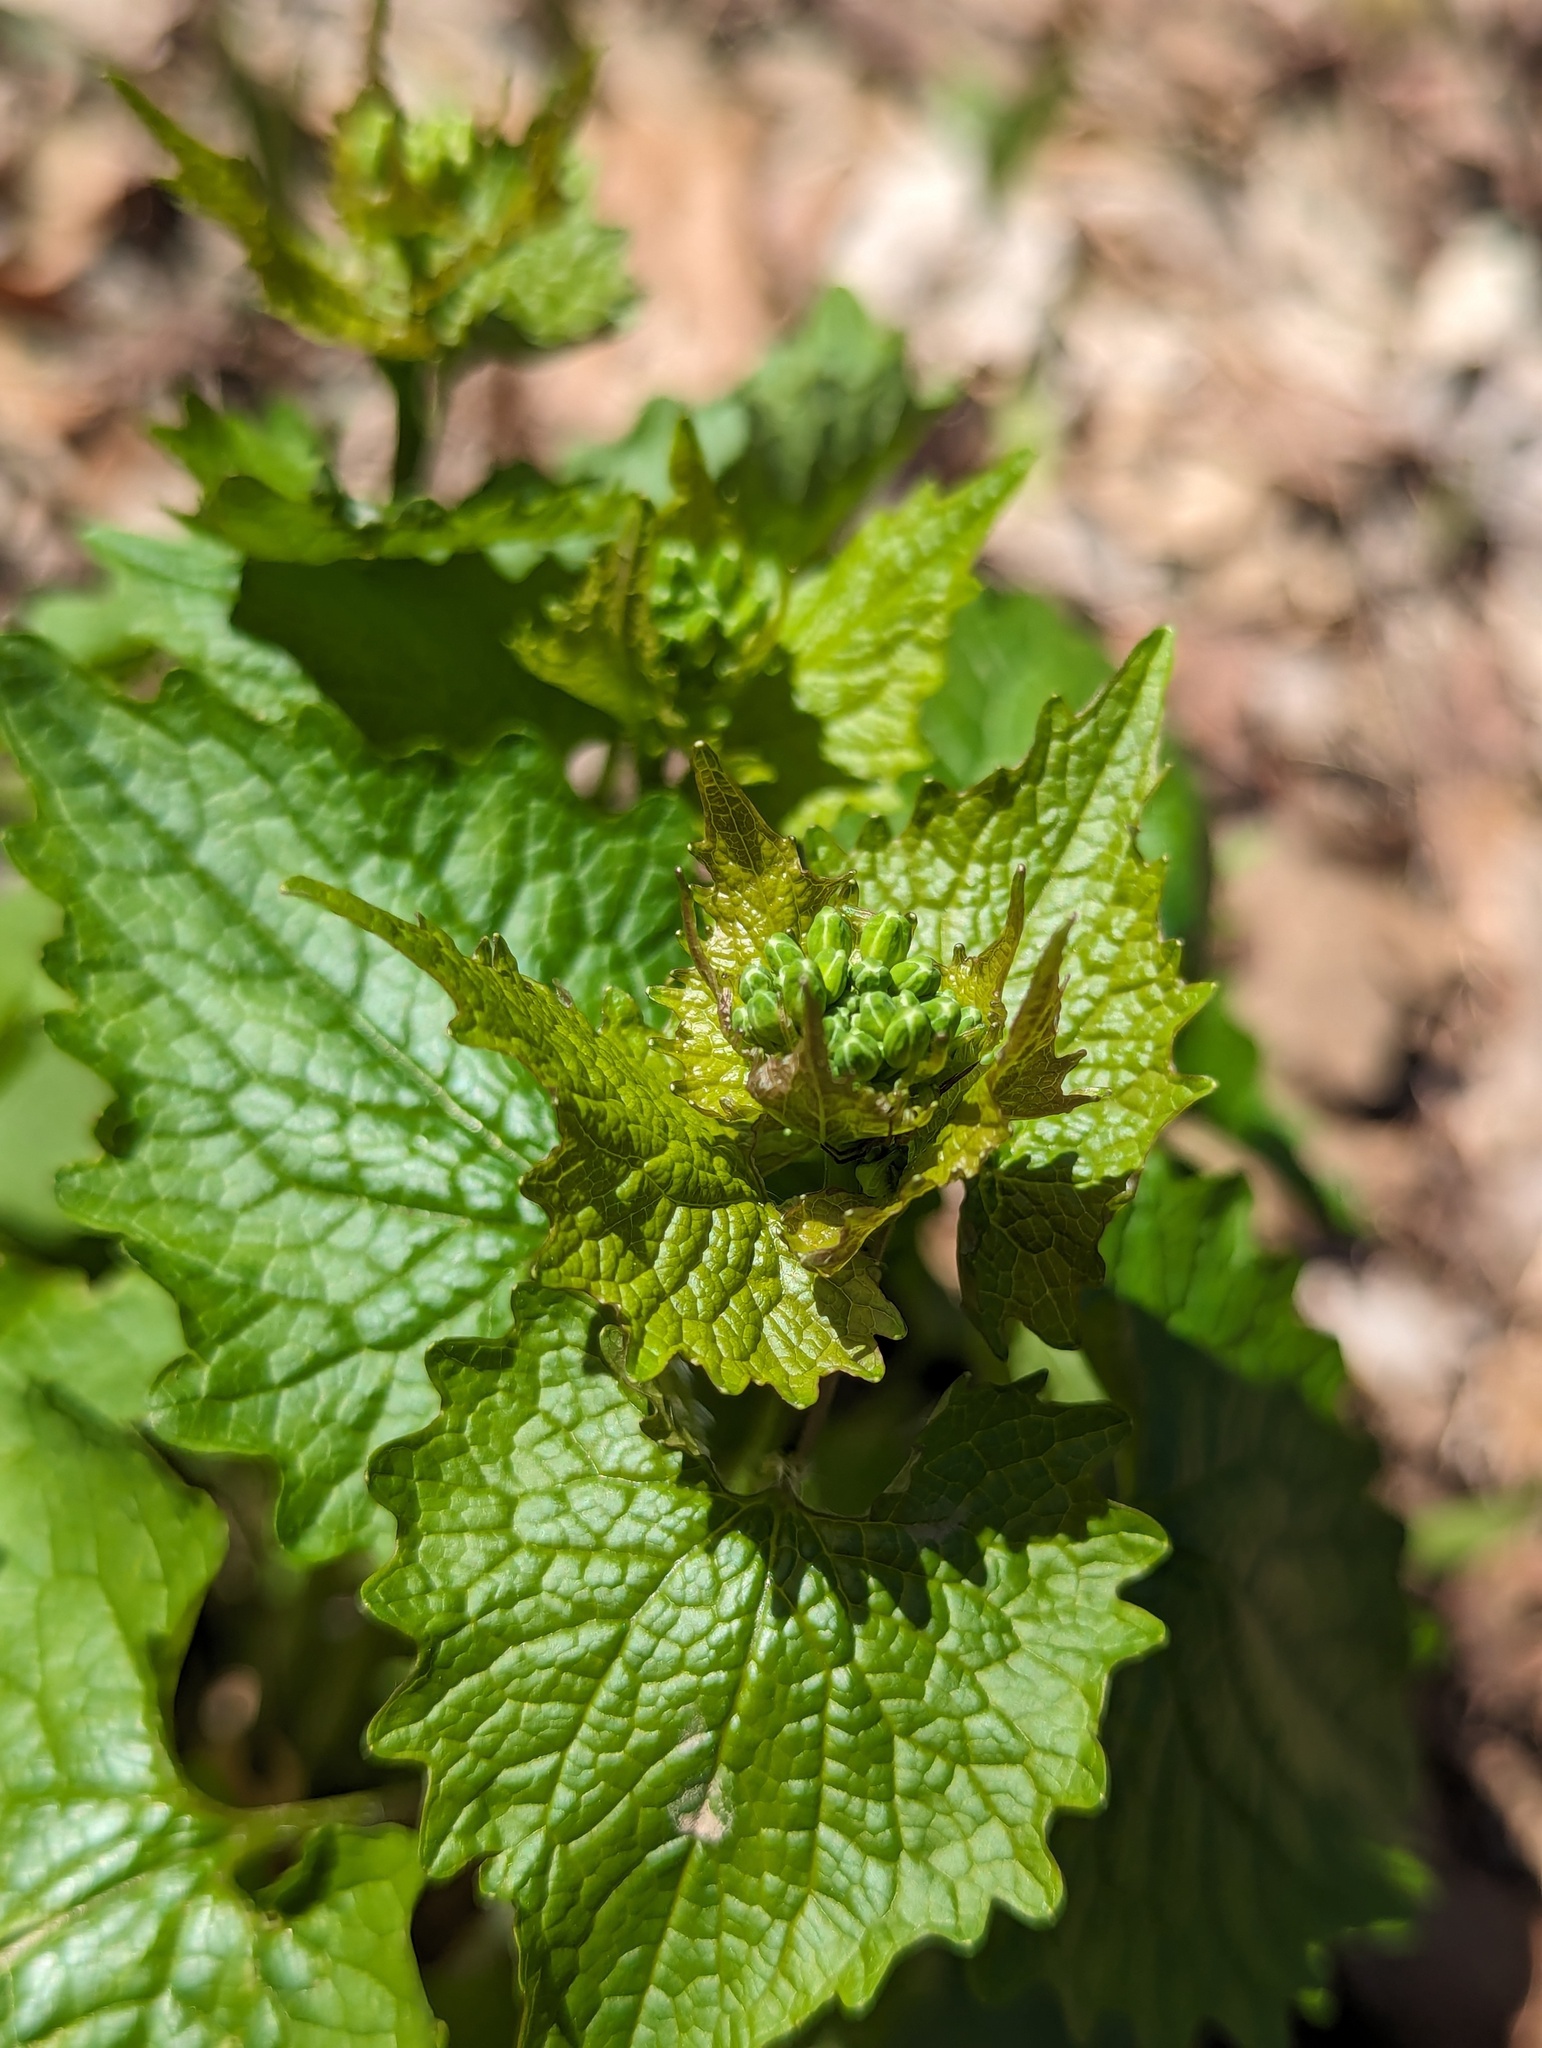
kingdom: Plantae
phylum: Tracheophyta
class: Magnoliopsida
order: Brassicales
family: Brassicaceae
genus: Alliaria
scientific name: Alliaria petiolata
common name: Garlic mustard
